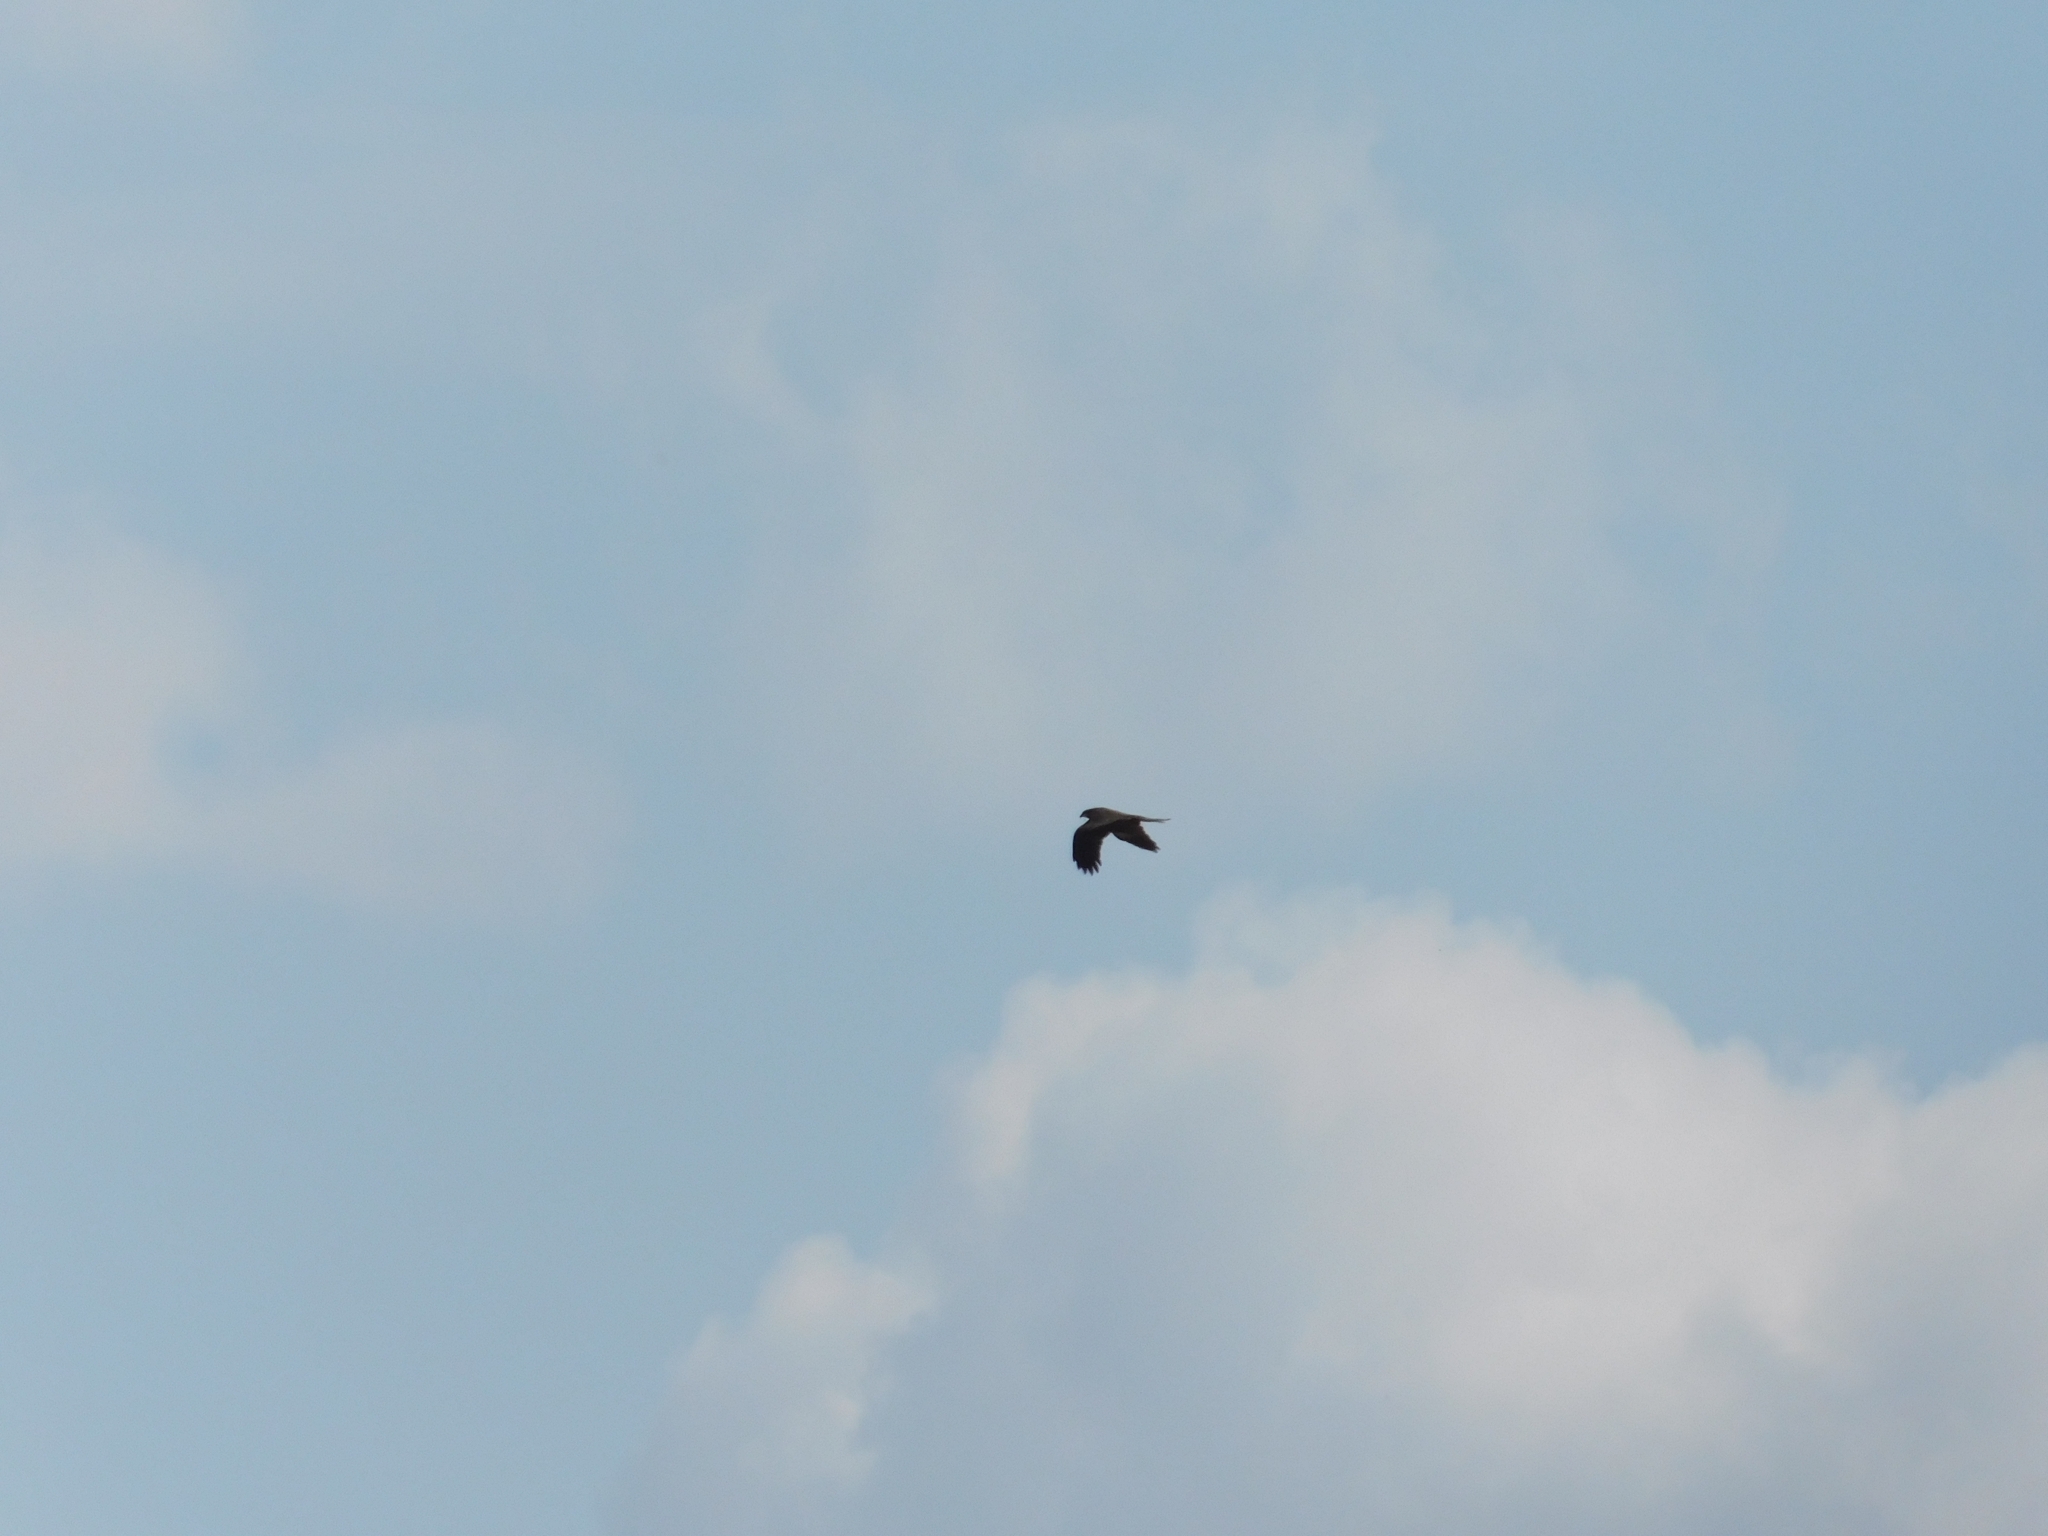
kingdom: Animalia
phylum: Chordata
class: Aves
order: Accipitriformes
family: Accipitridae
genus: Milvus
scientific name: Milvus migrans
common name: Black kite
